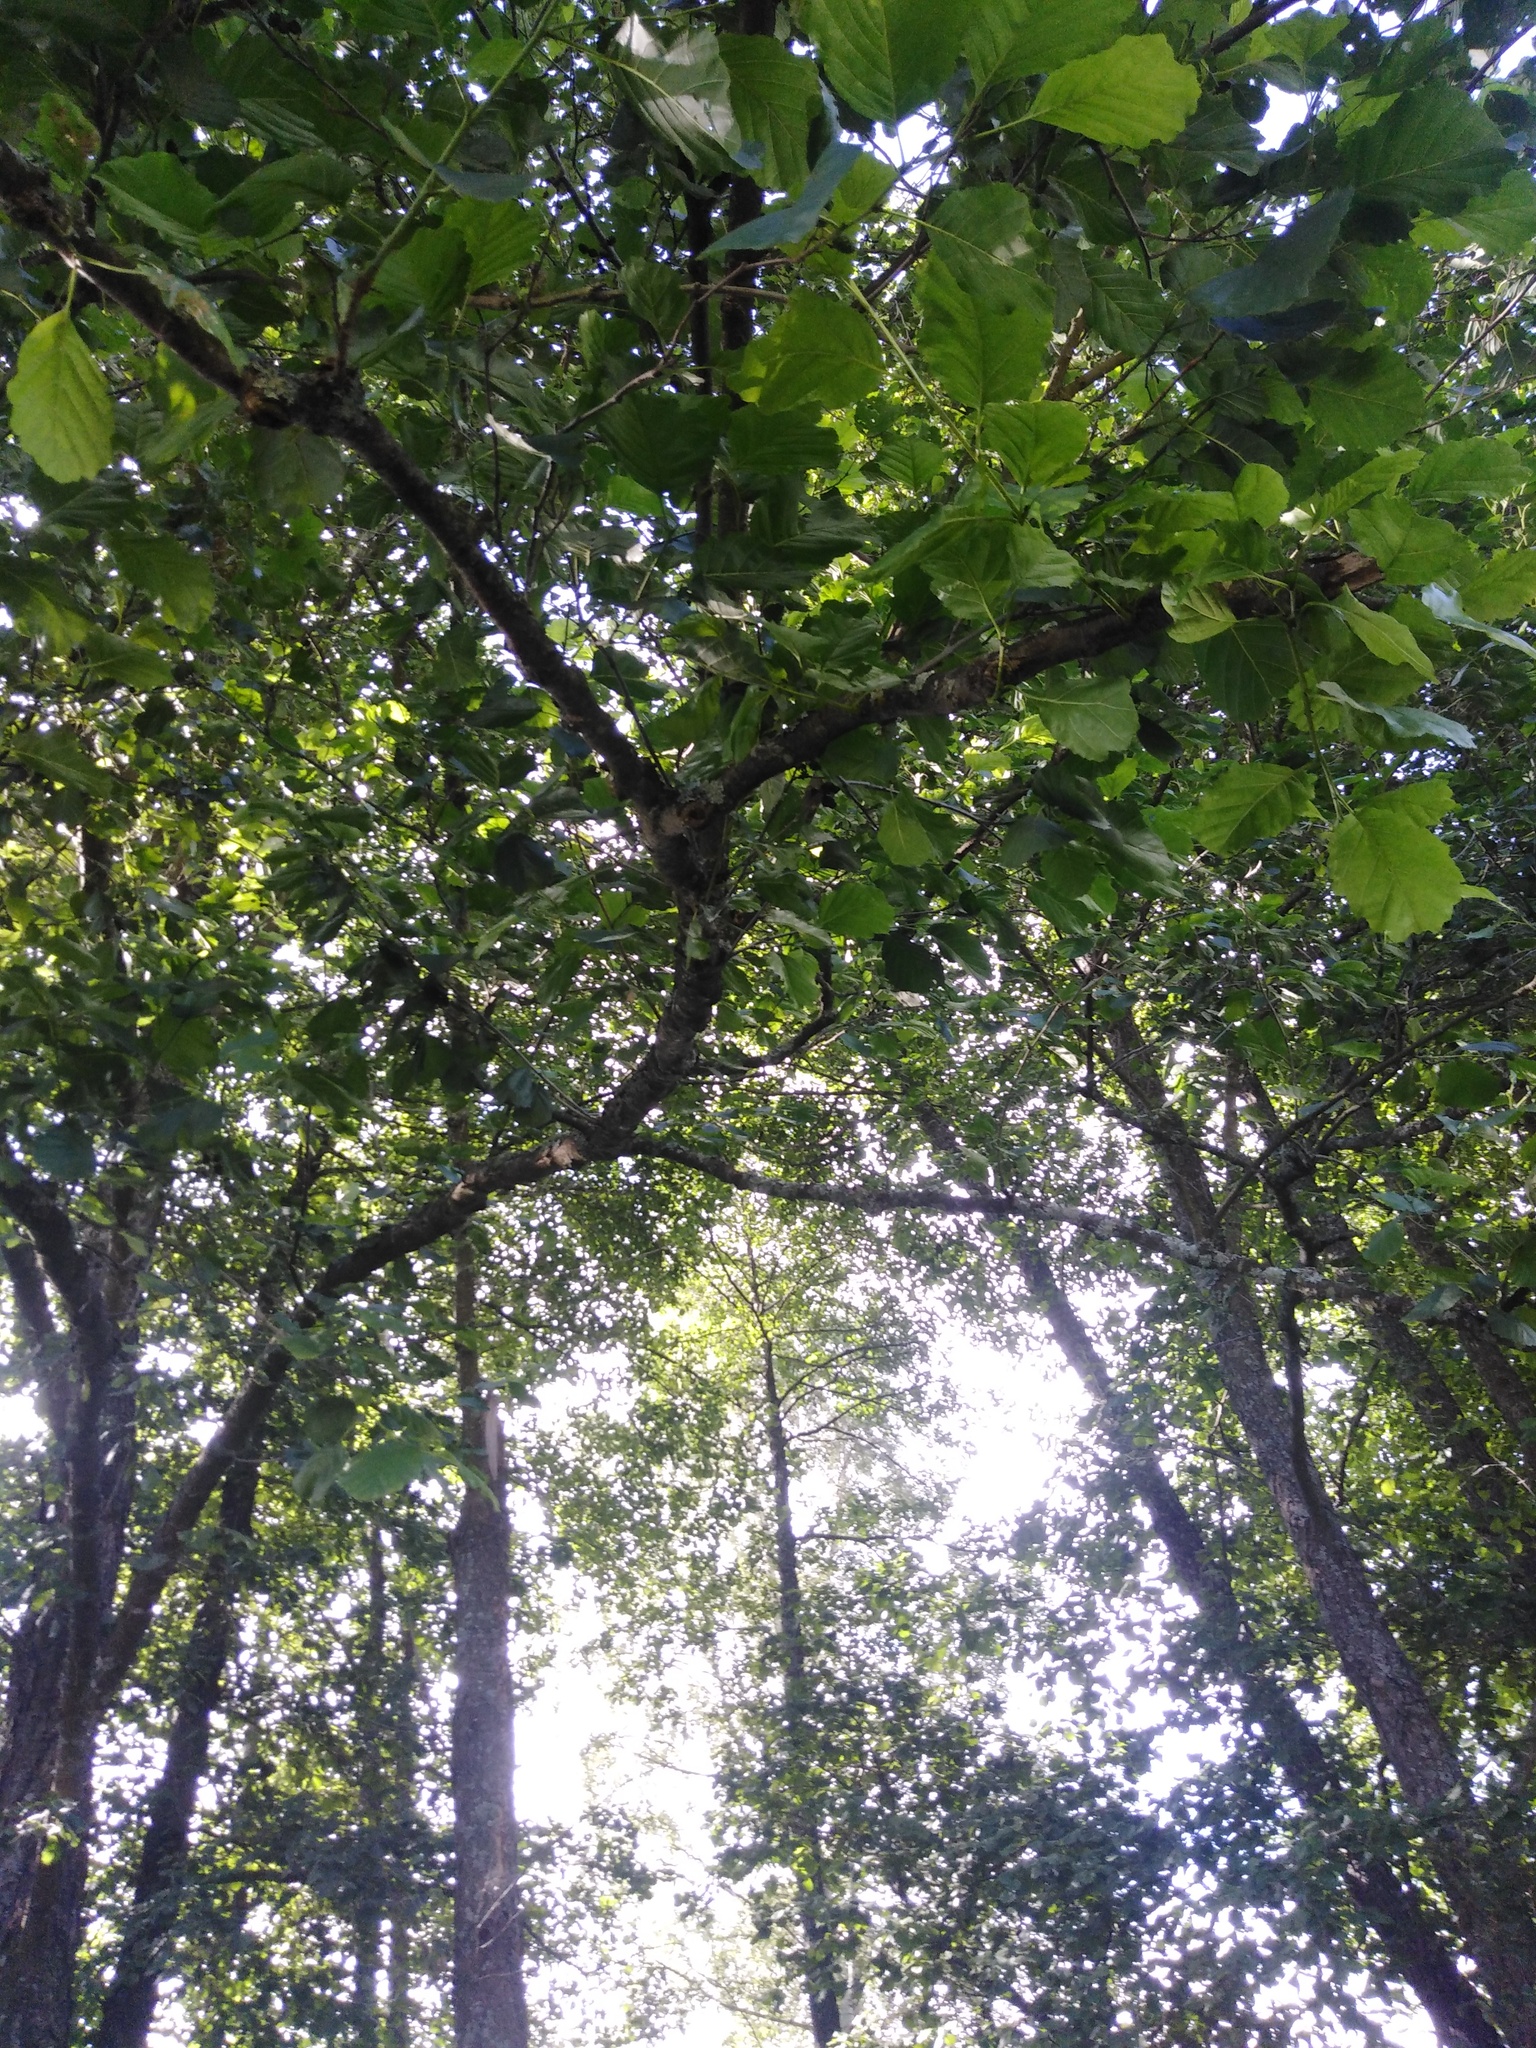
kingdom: Plantae
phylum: Tracheophyta
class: Magnoliopsida
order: Fagales
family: Betulaceae
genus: Alnus
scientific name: Alnus glutinosa
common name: Black alder
